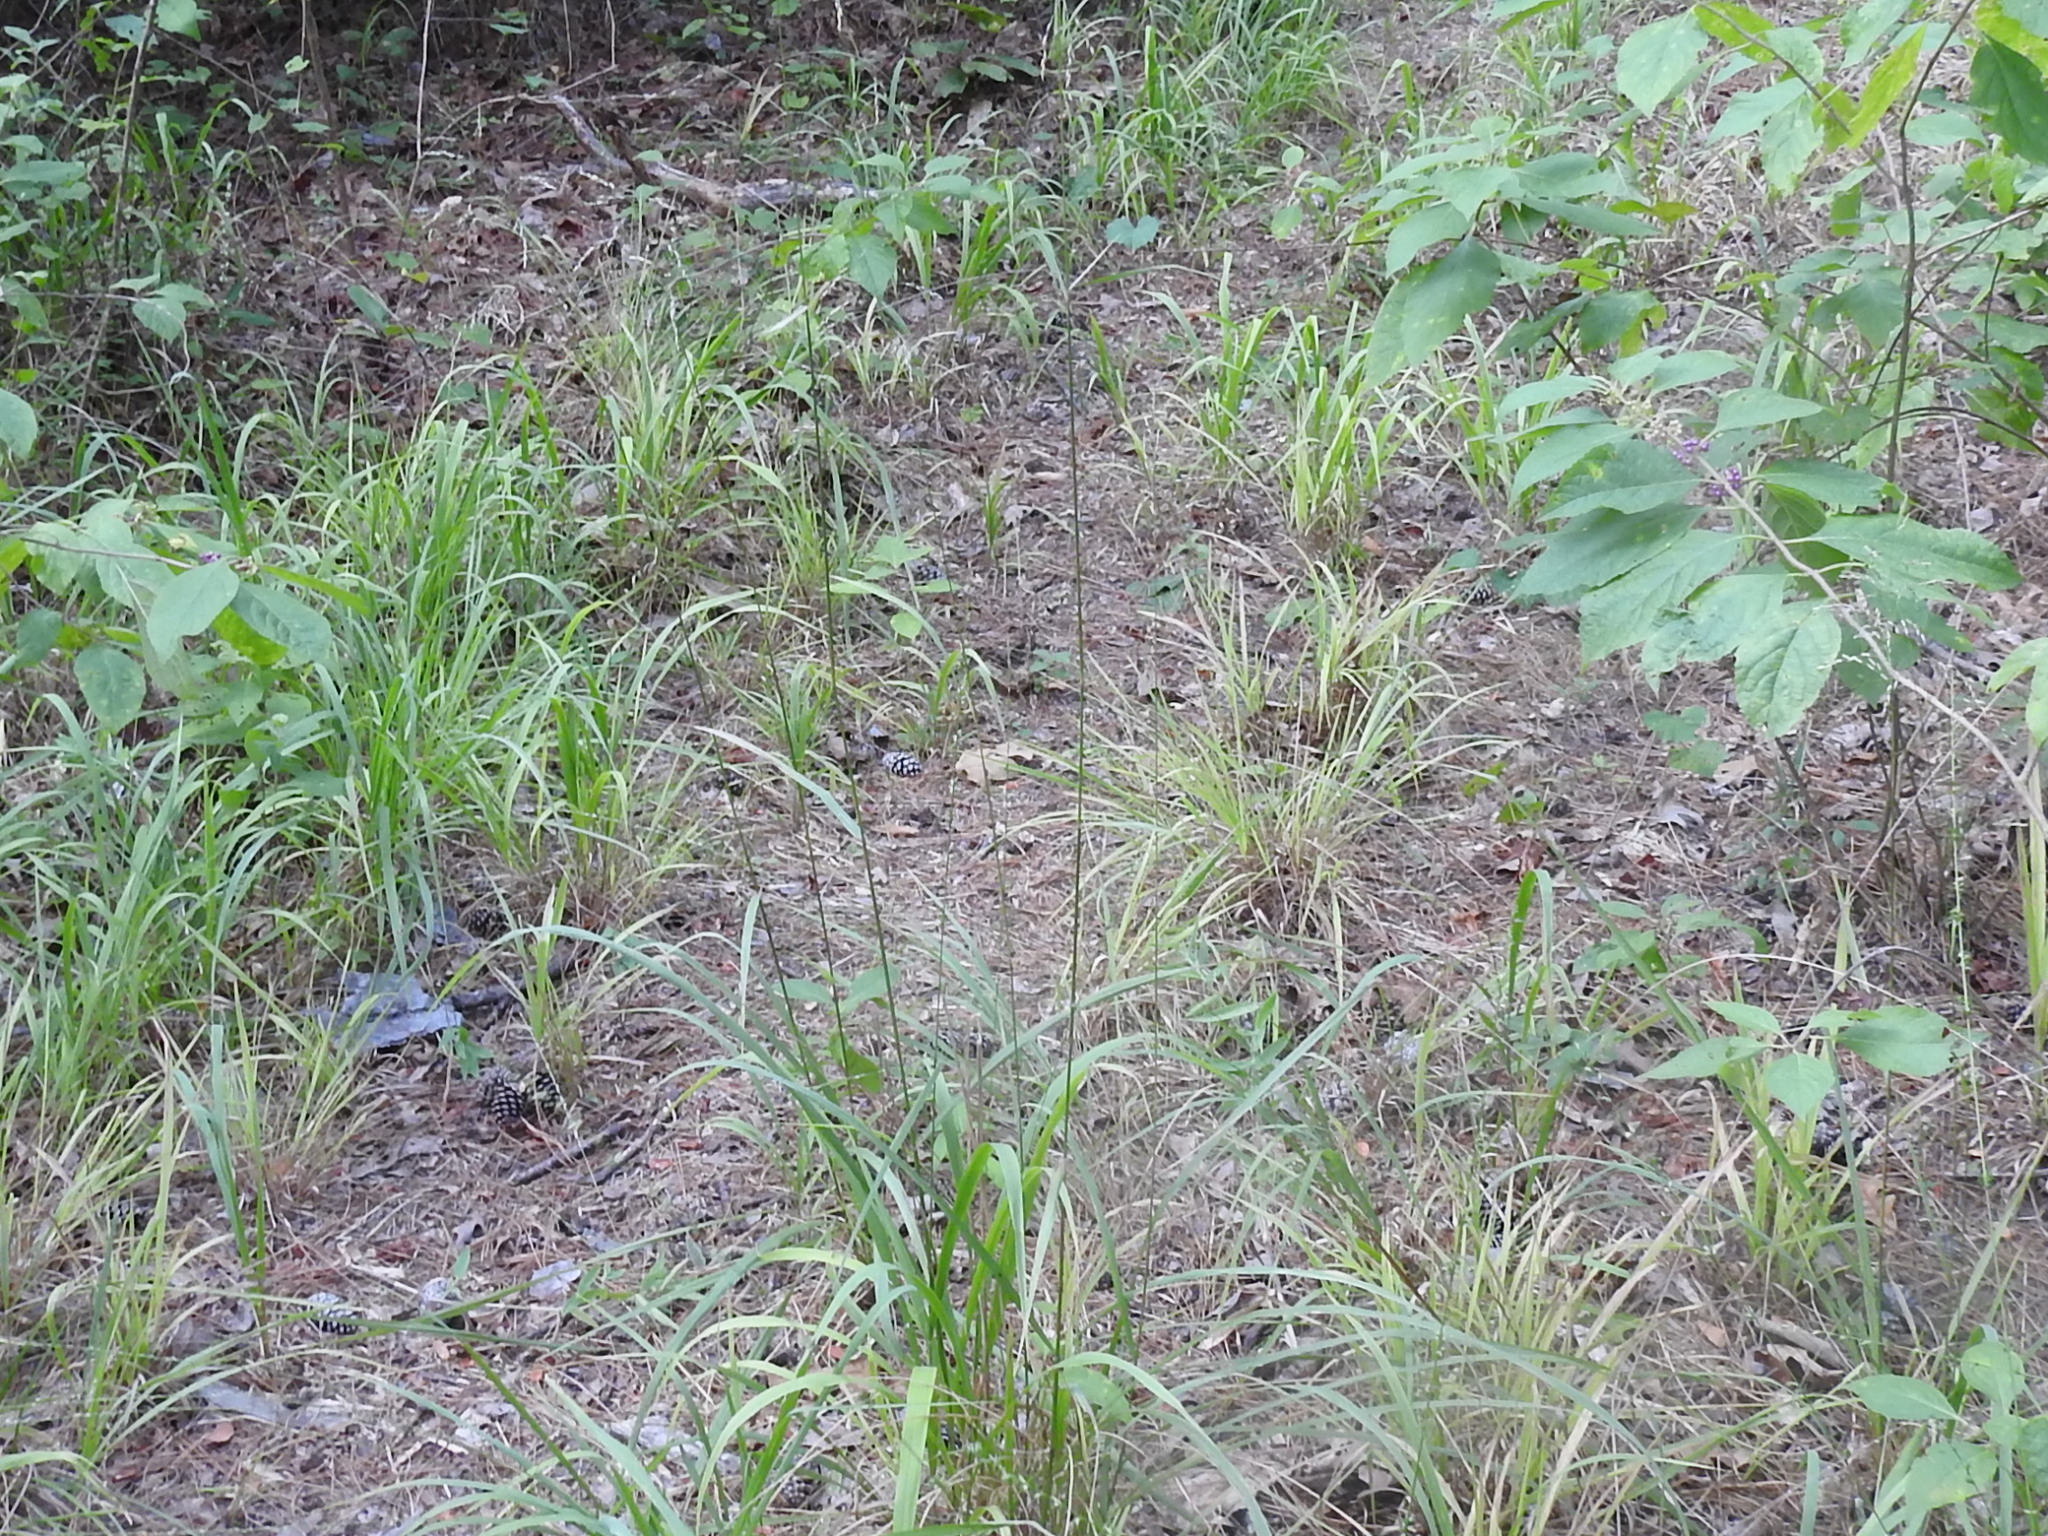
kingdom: Plantae
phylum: Tracheophyta
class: Liliopsida
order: Poales
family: Poaceae
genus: Tridens
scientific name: Tridens flavus
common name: Purpletop
